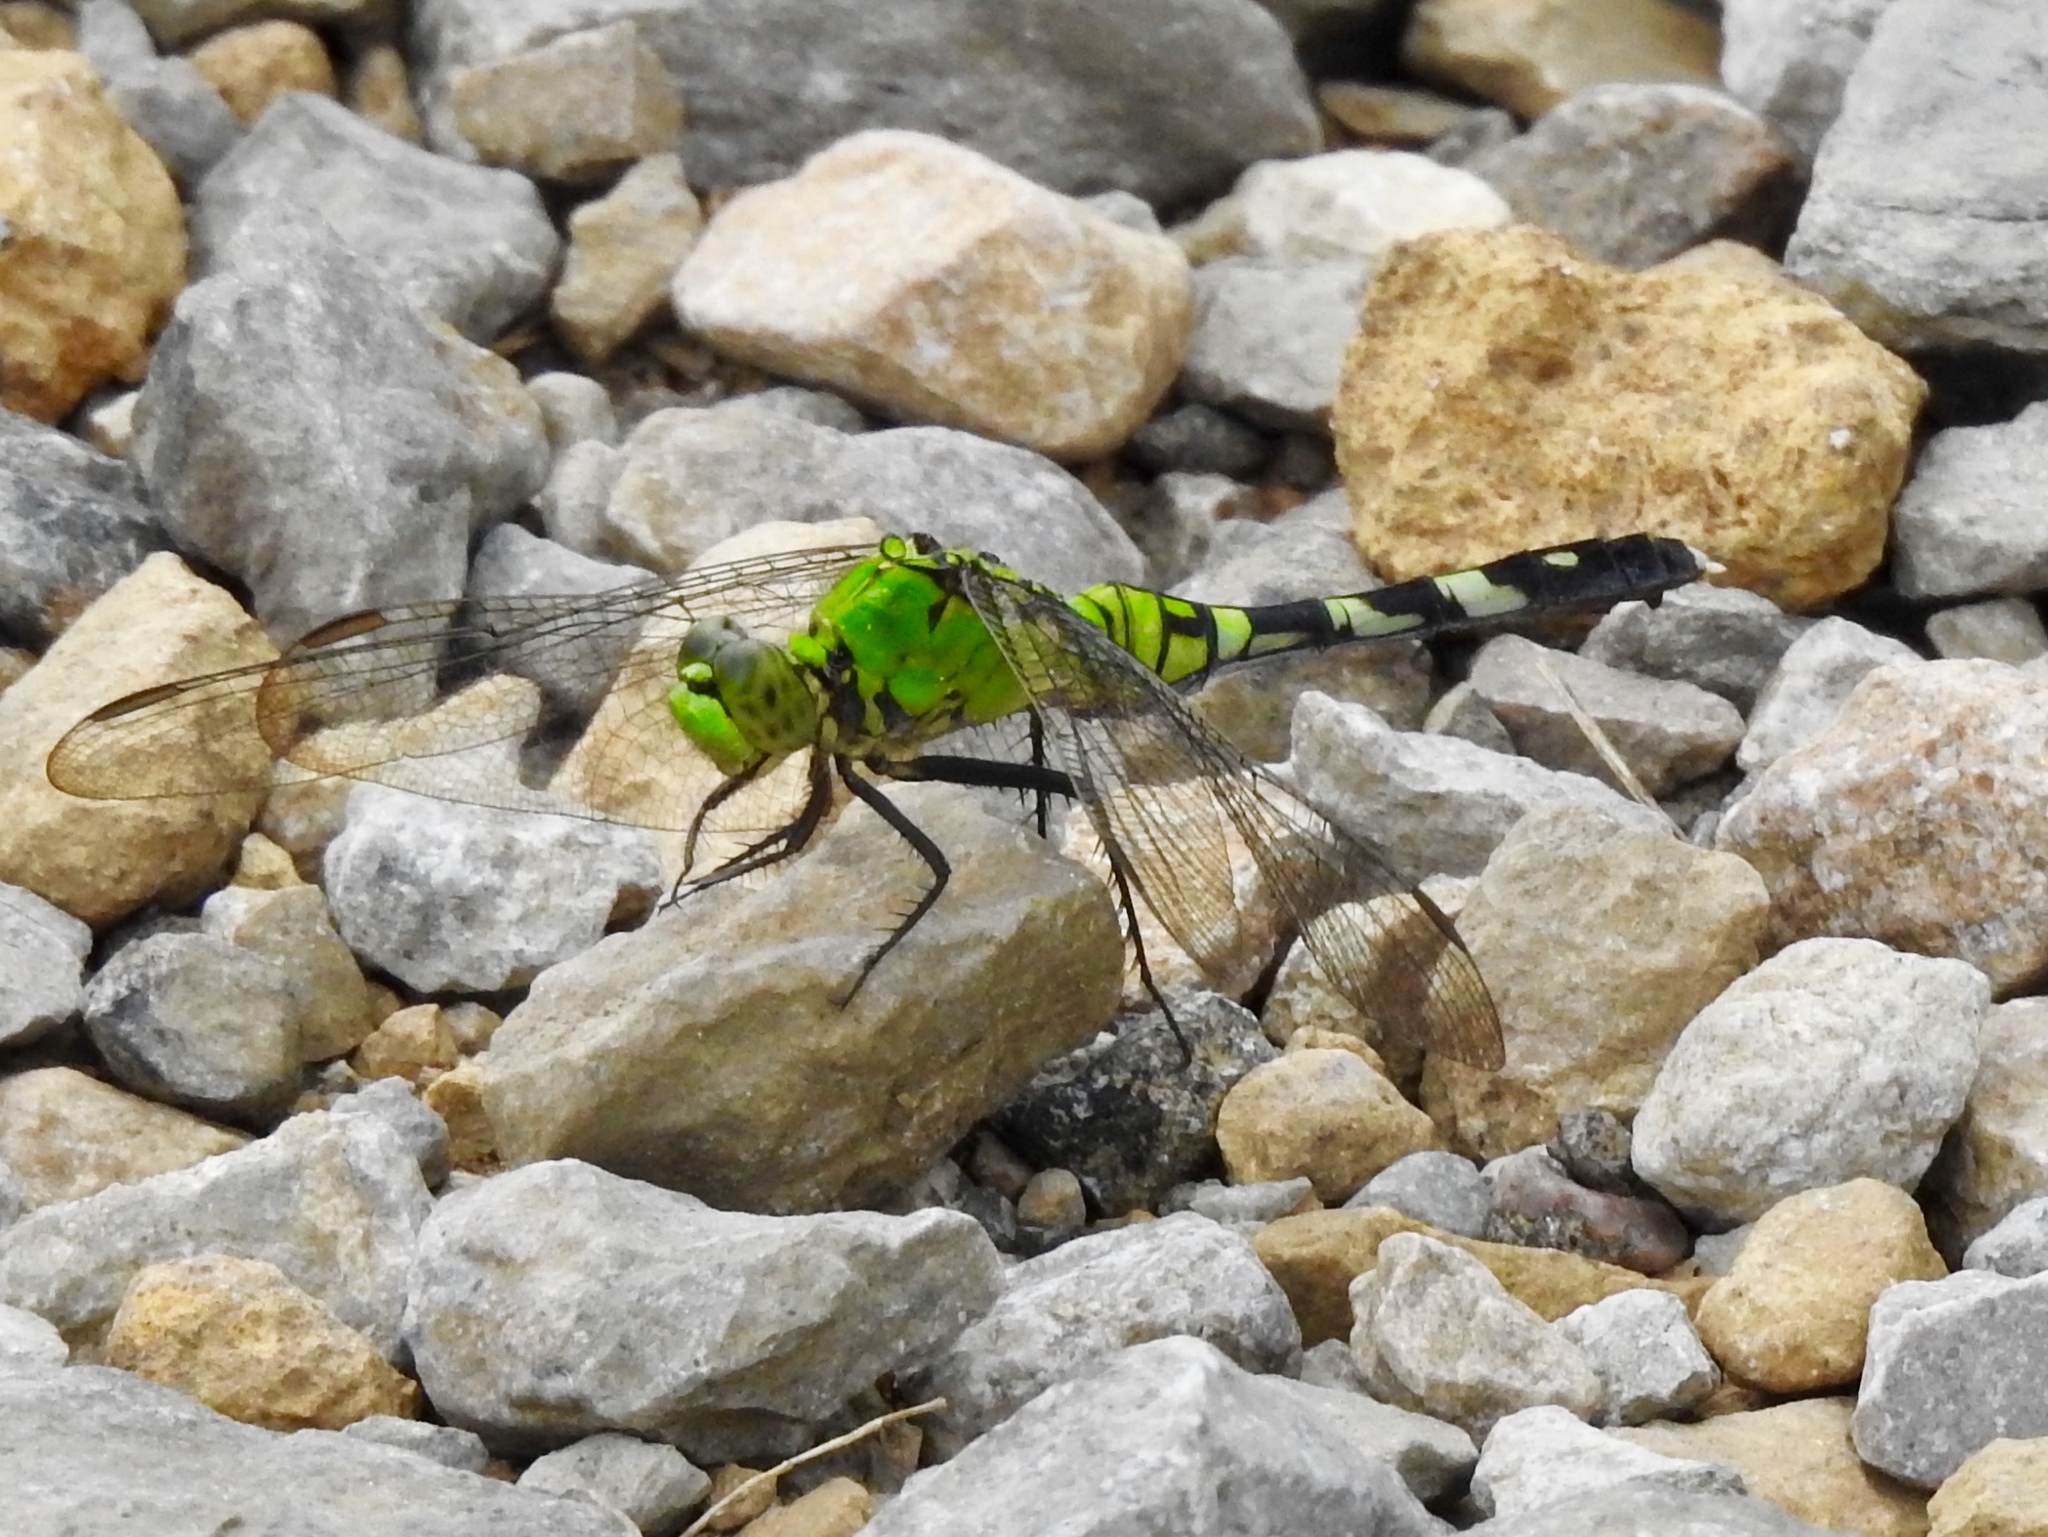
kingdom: Animalia
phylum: Arthropoda
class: Insecta
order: Odonata
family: Libellulidae
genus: Erythemis
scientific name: Erythemis simplicicollis
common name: Eastern pondhawk
